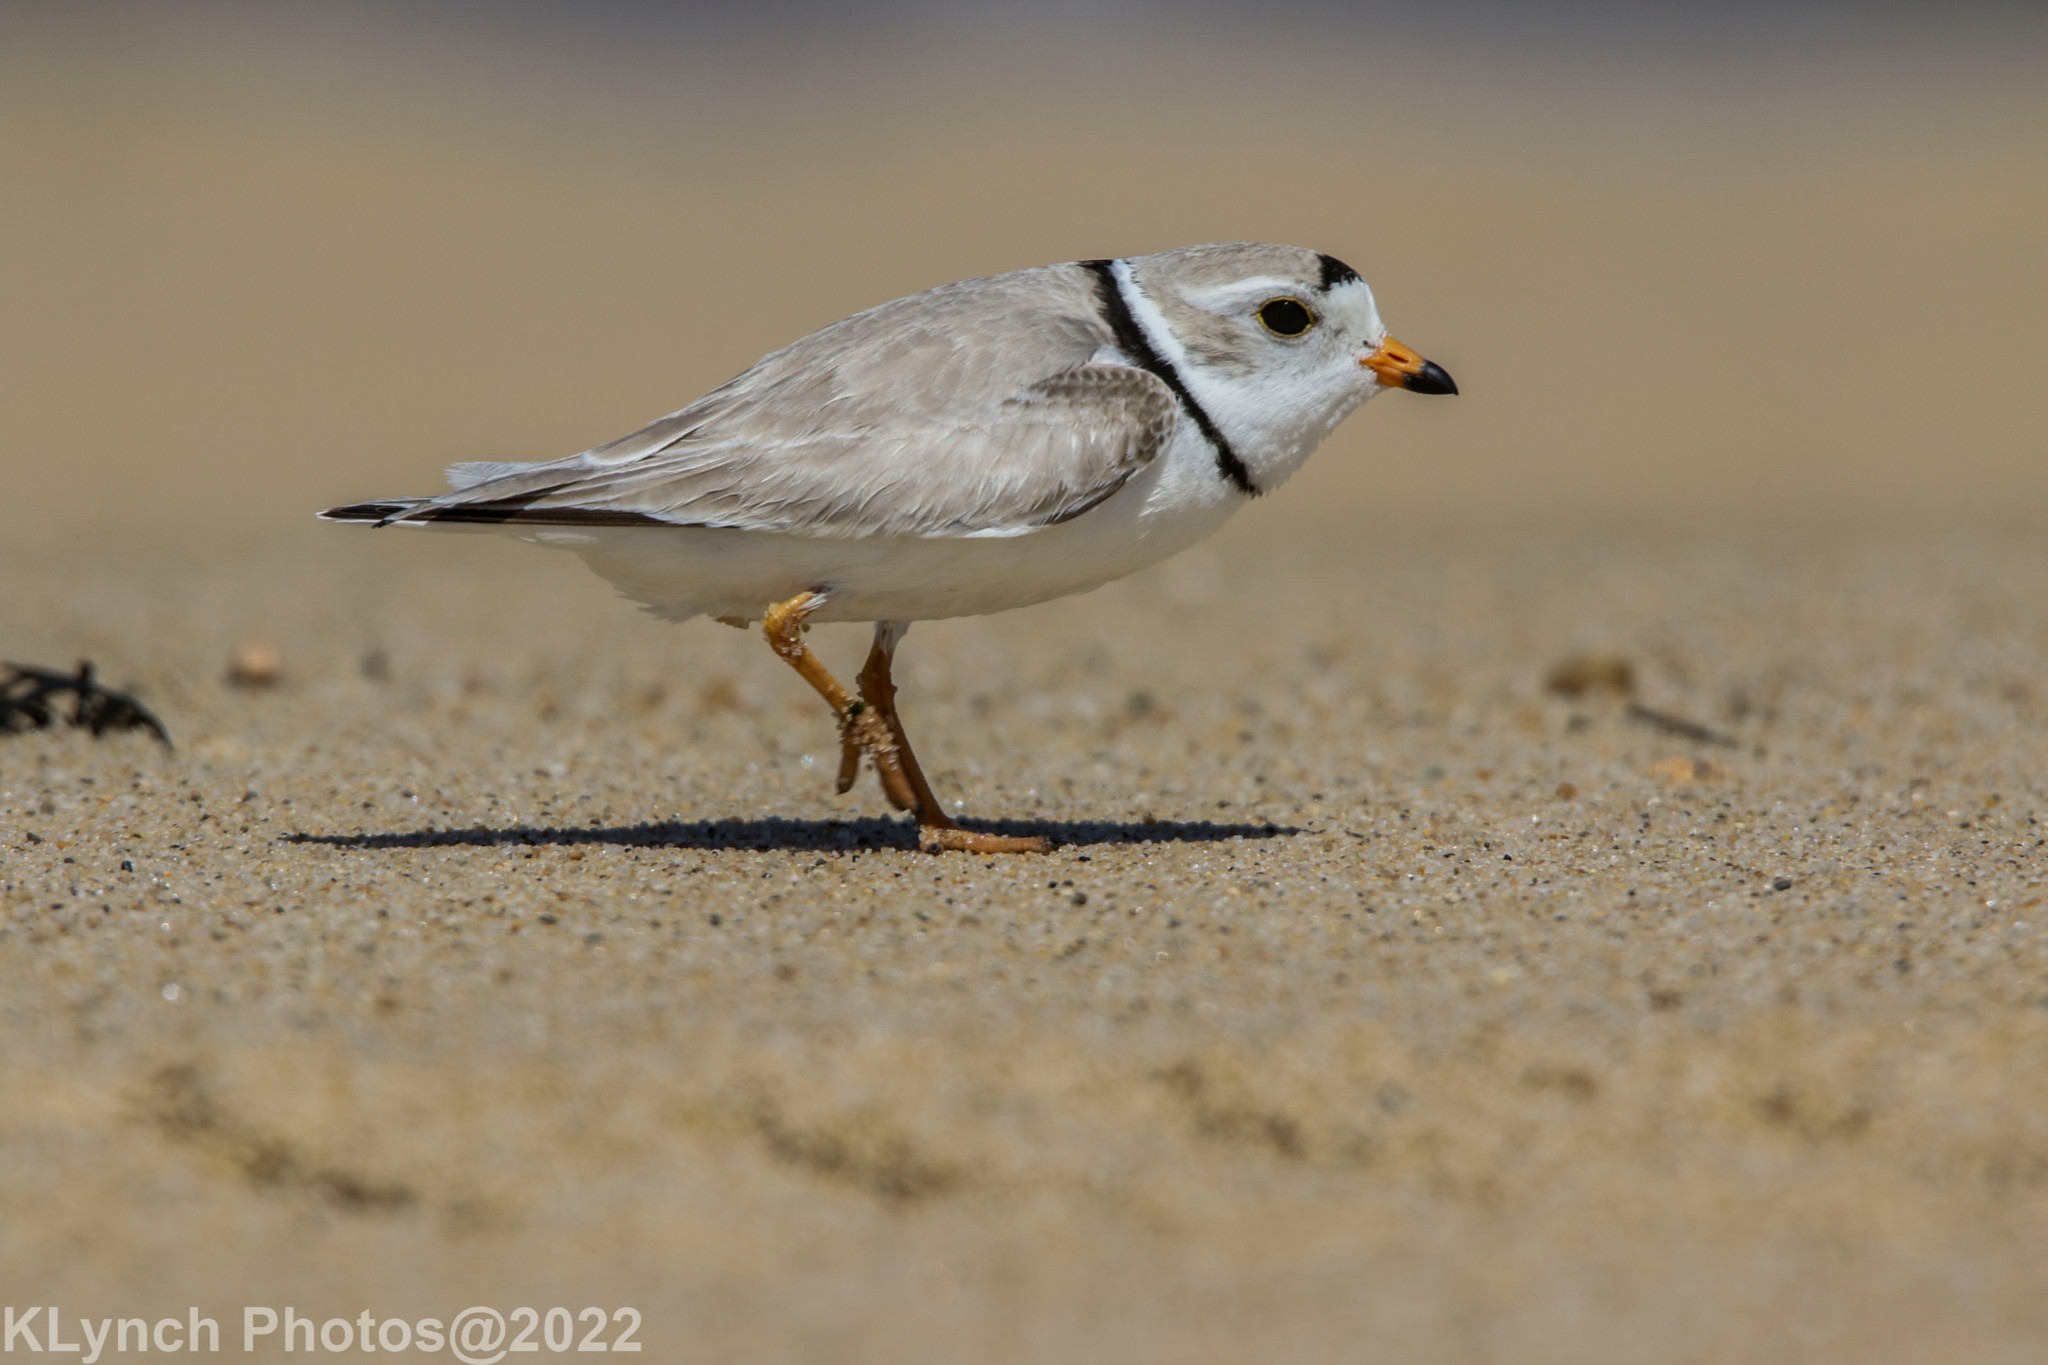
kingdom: Animalia
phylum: Chordata
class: Aves
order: Charadriiformes
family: Charadriidae
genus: Charadrius
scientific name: Charadrius melodus
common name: Piping plover
